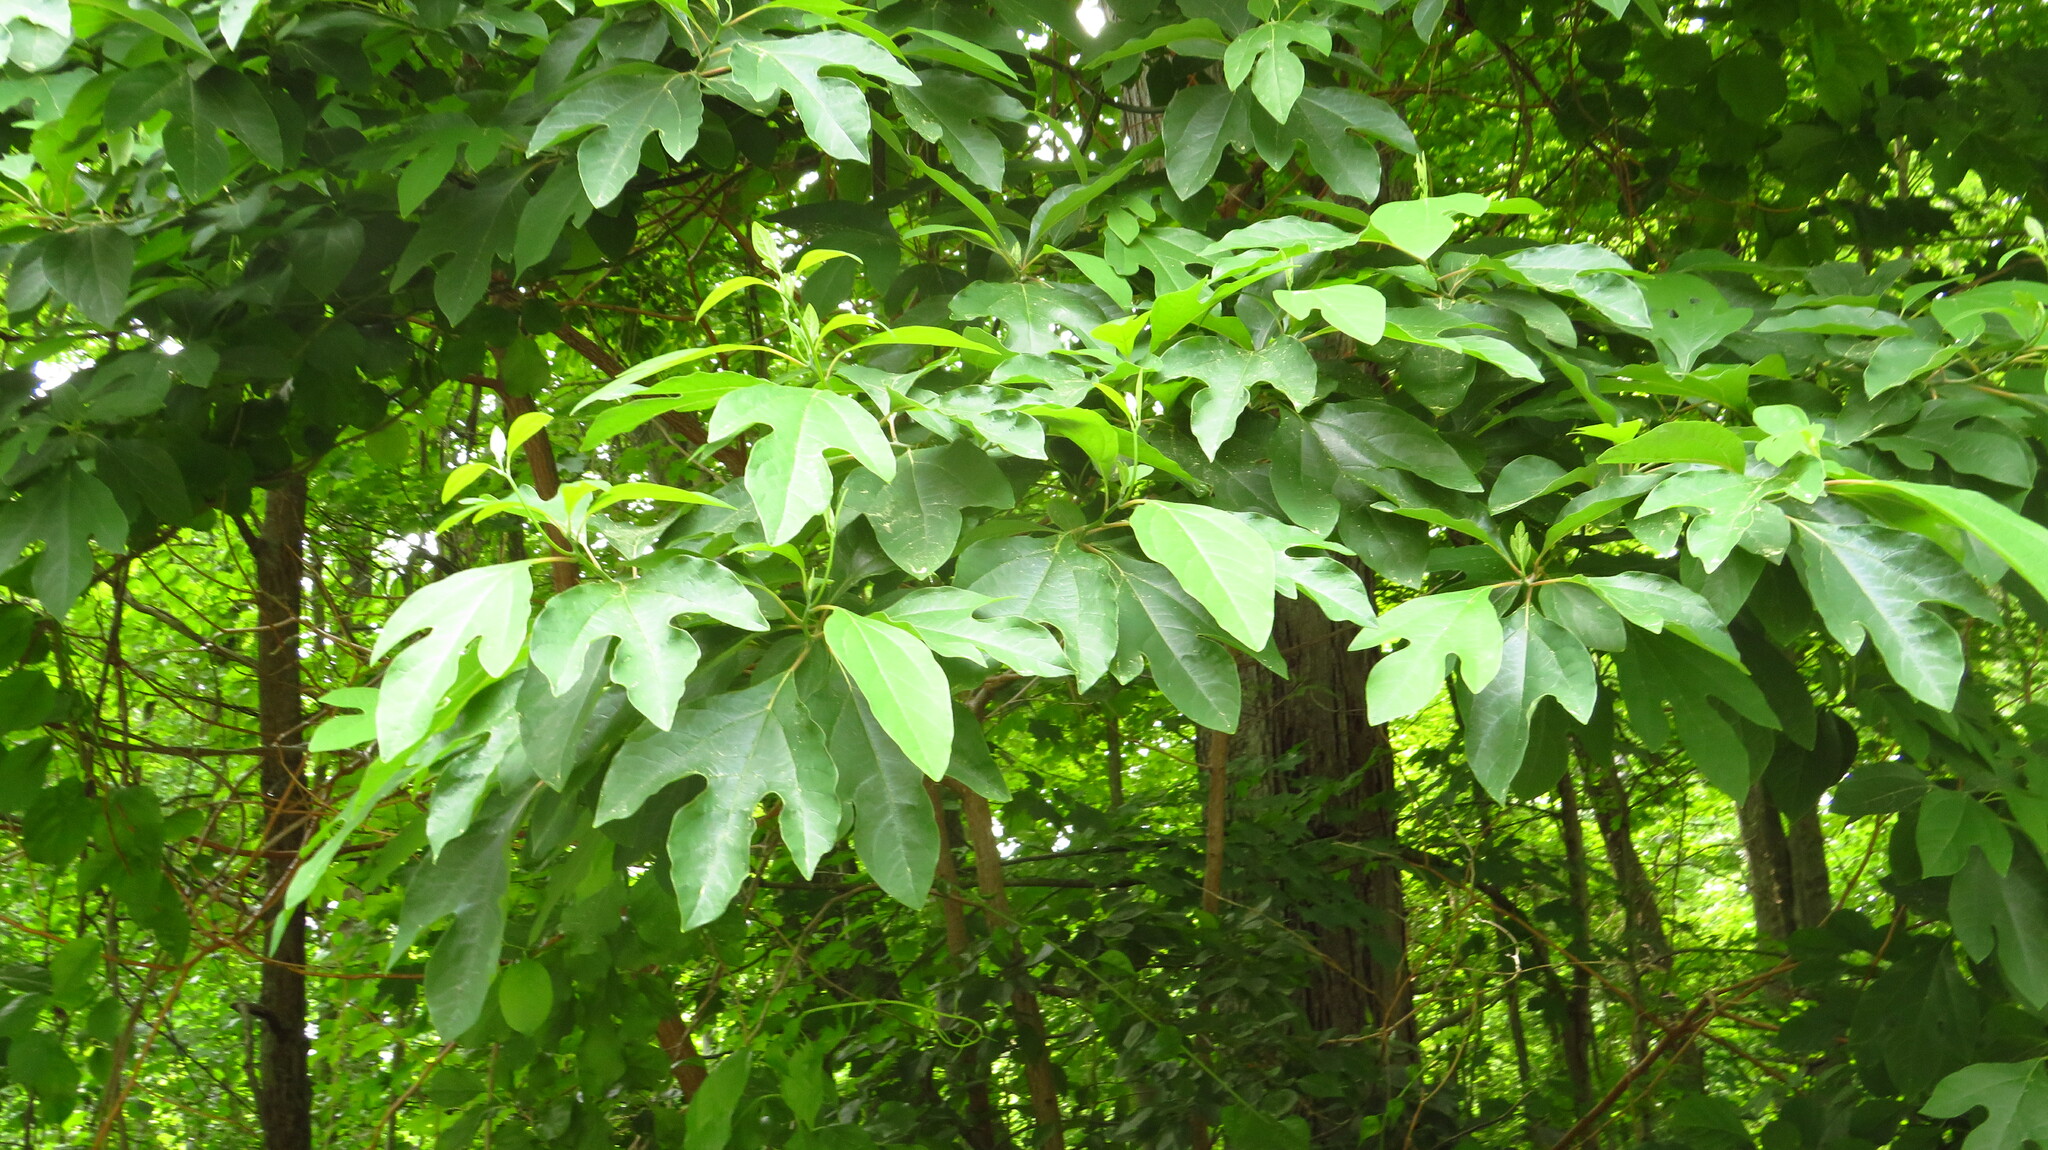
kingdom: Plantae
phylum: Tracheophyta
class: Magnoliopsida
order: Laurales
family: Lauraceae
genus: Sassafras
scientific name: Sassafras albidum
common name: Sassafras
